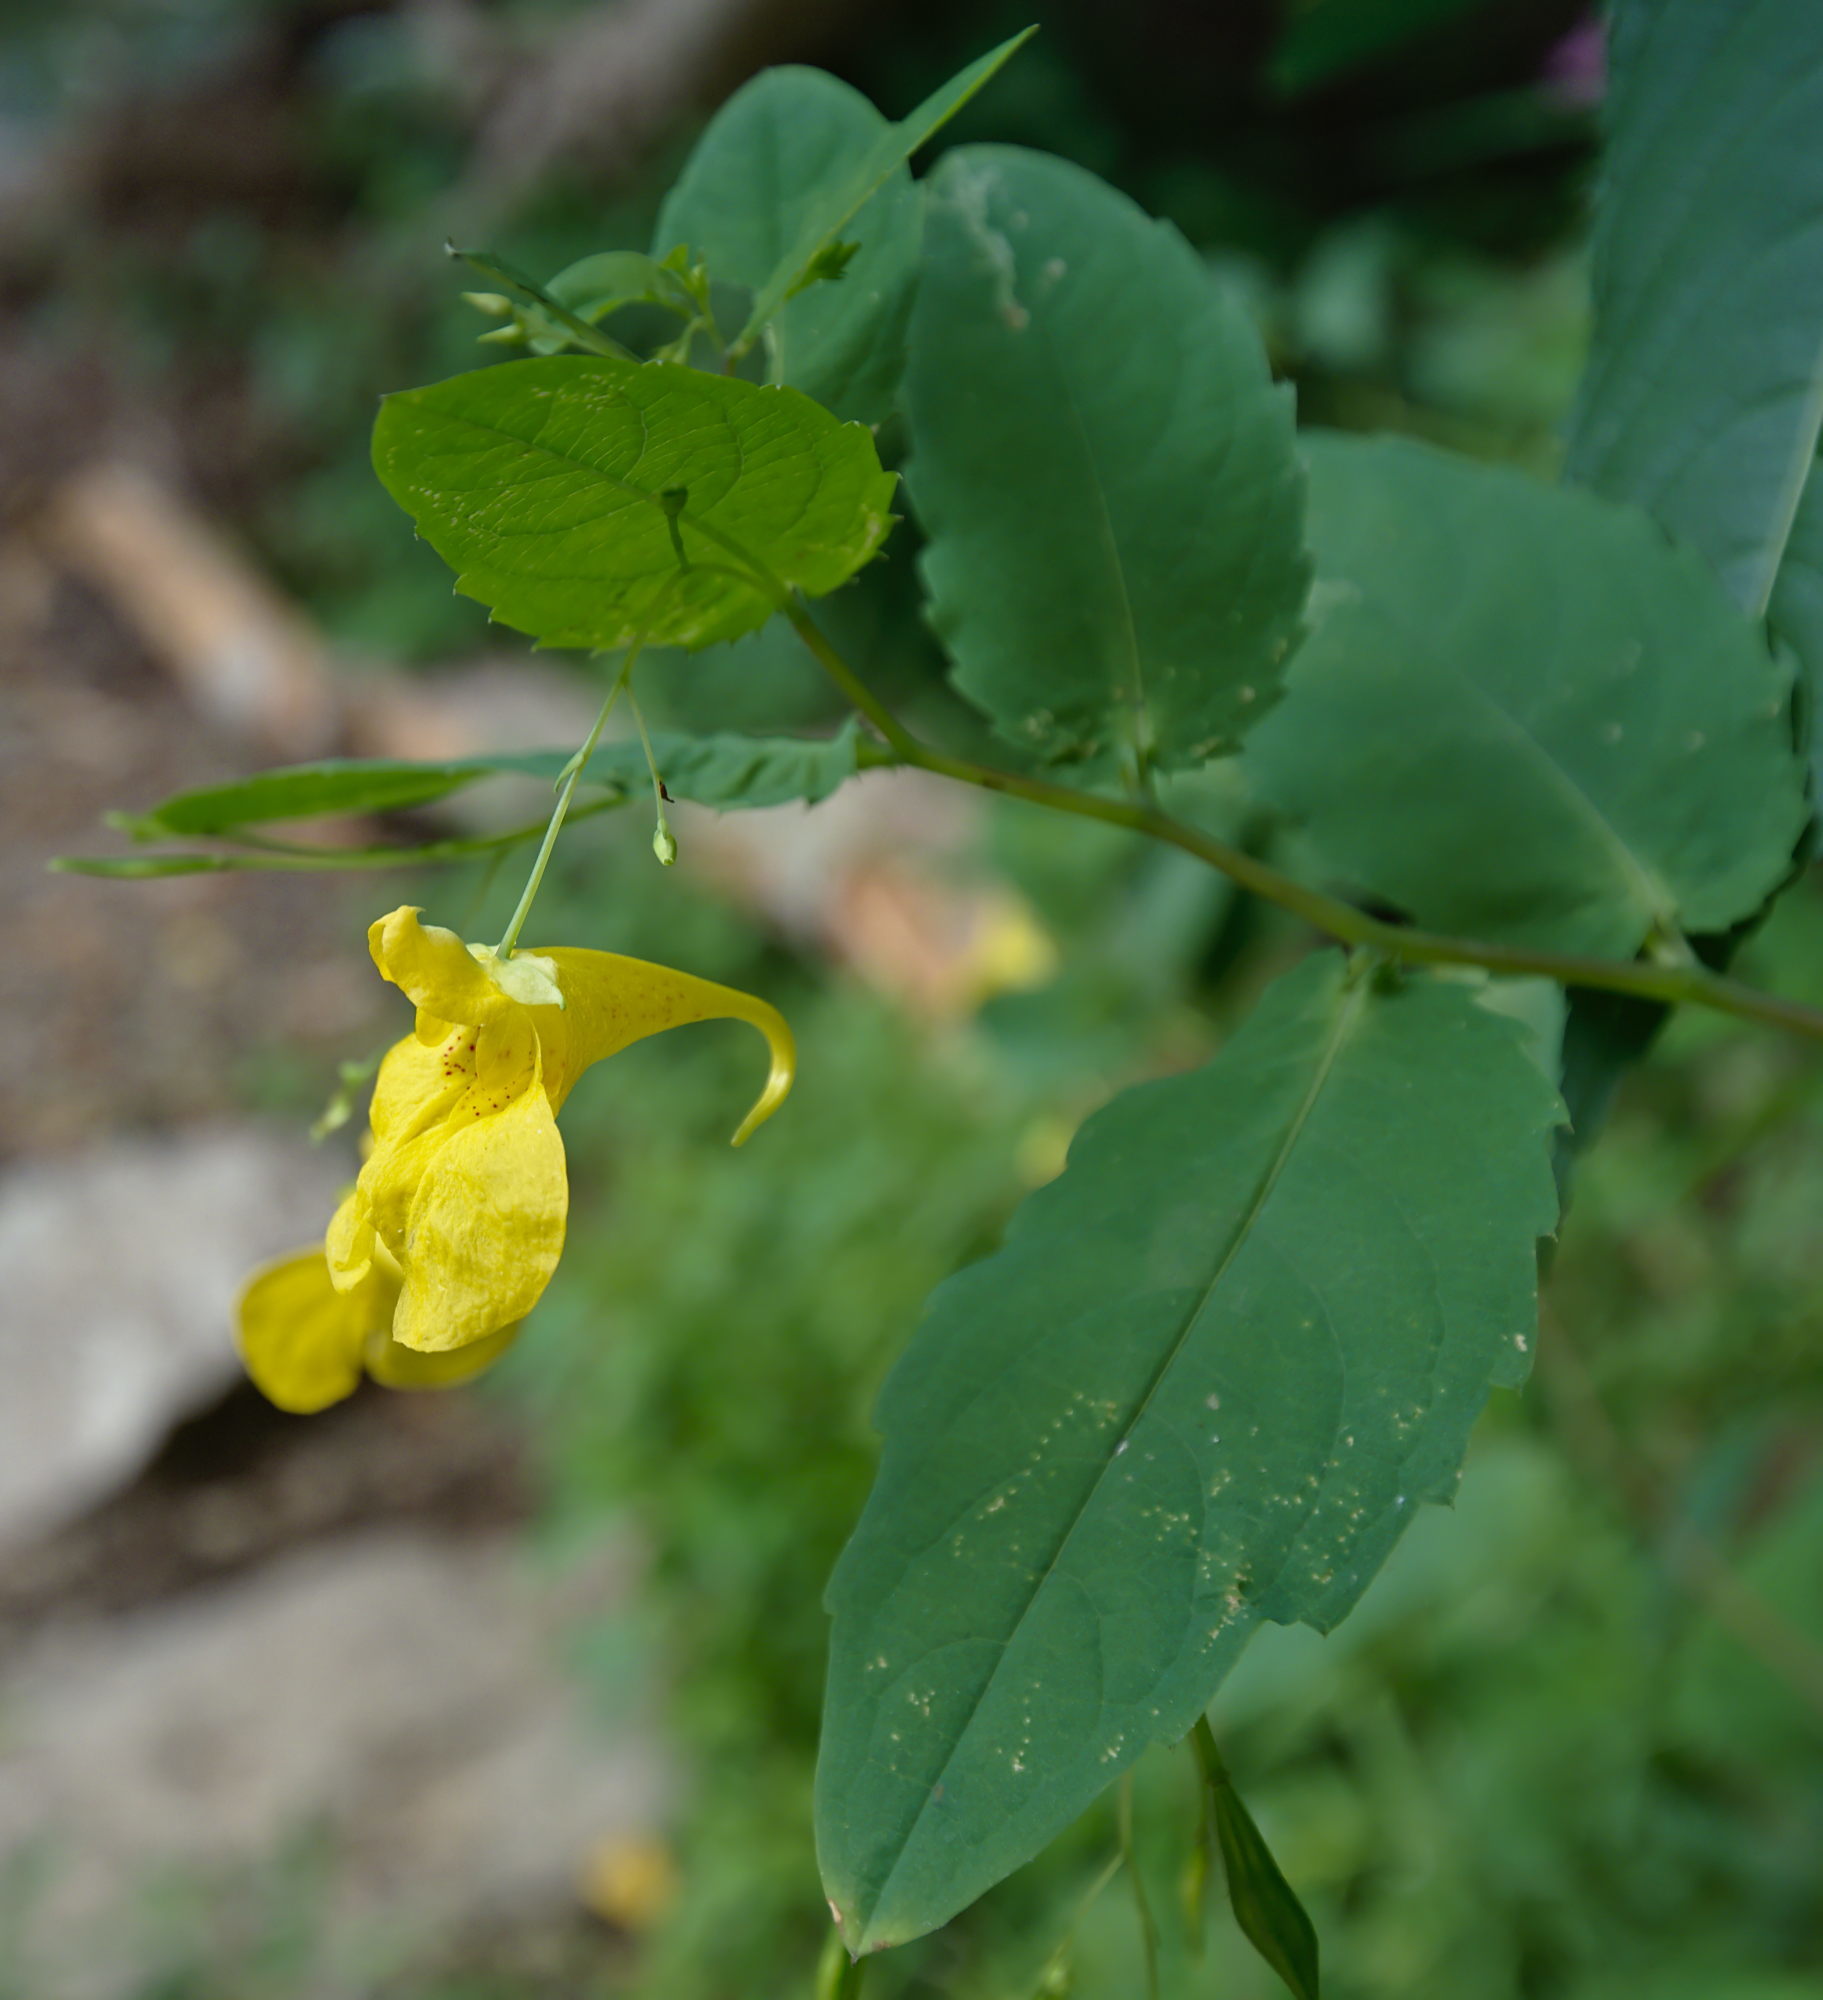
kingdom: Plantae
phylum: Tracheophyta
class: Magnoliopsida
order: Ericales
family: Balsaminaceae
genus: Impatiens
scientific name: Impatiens noli-tangere
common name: Touch-me-not balsam
